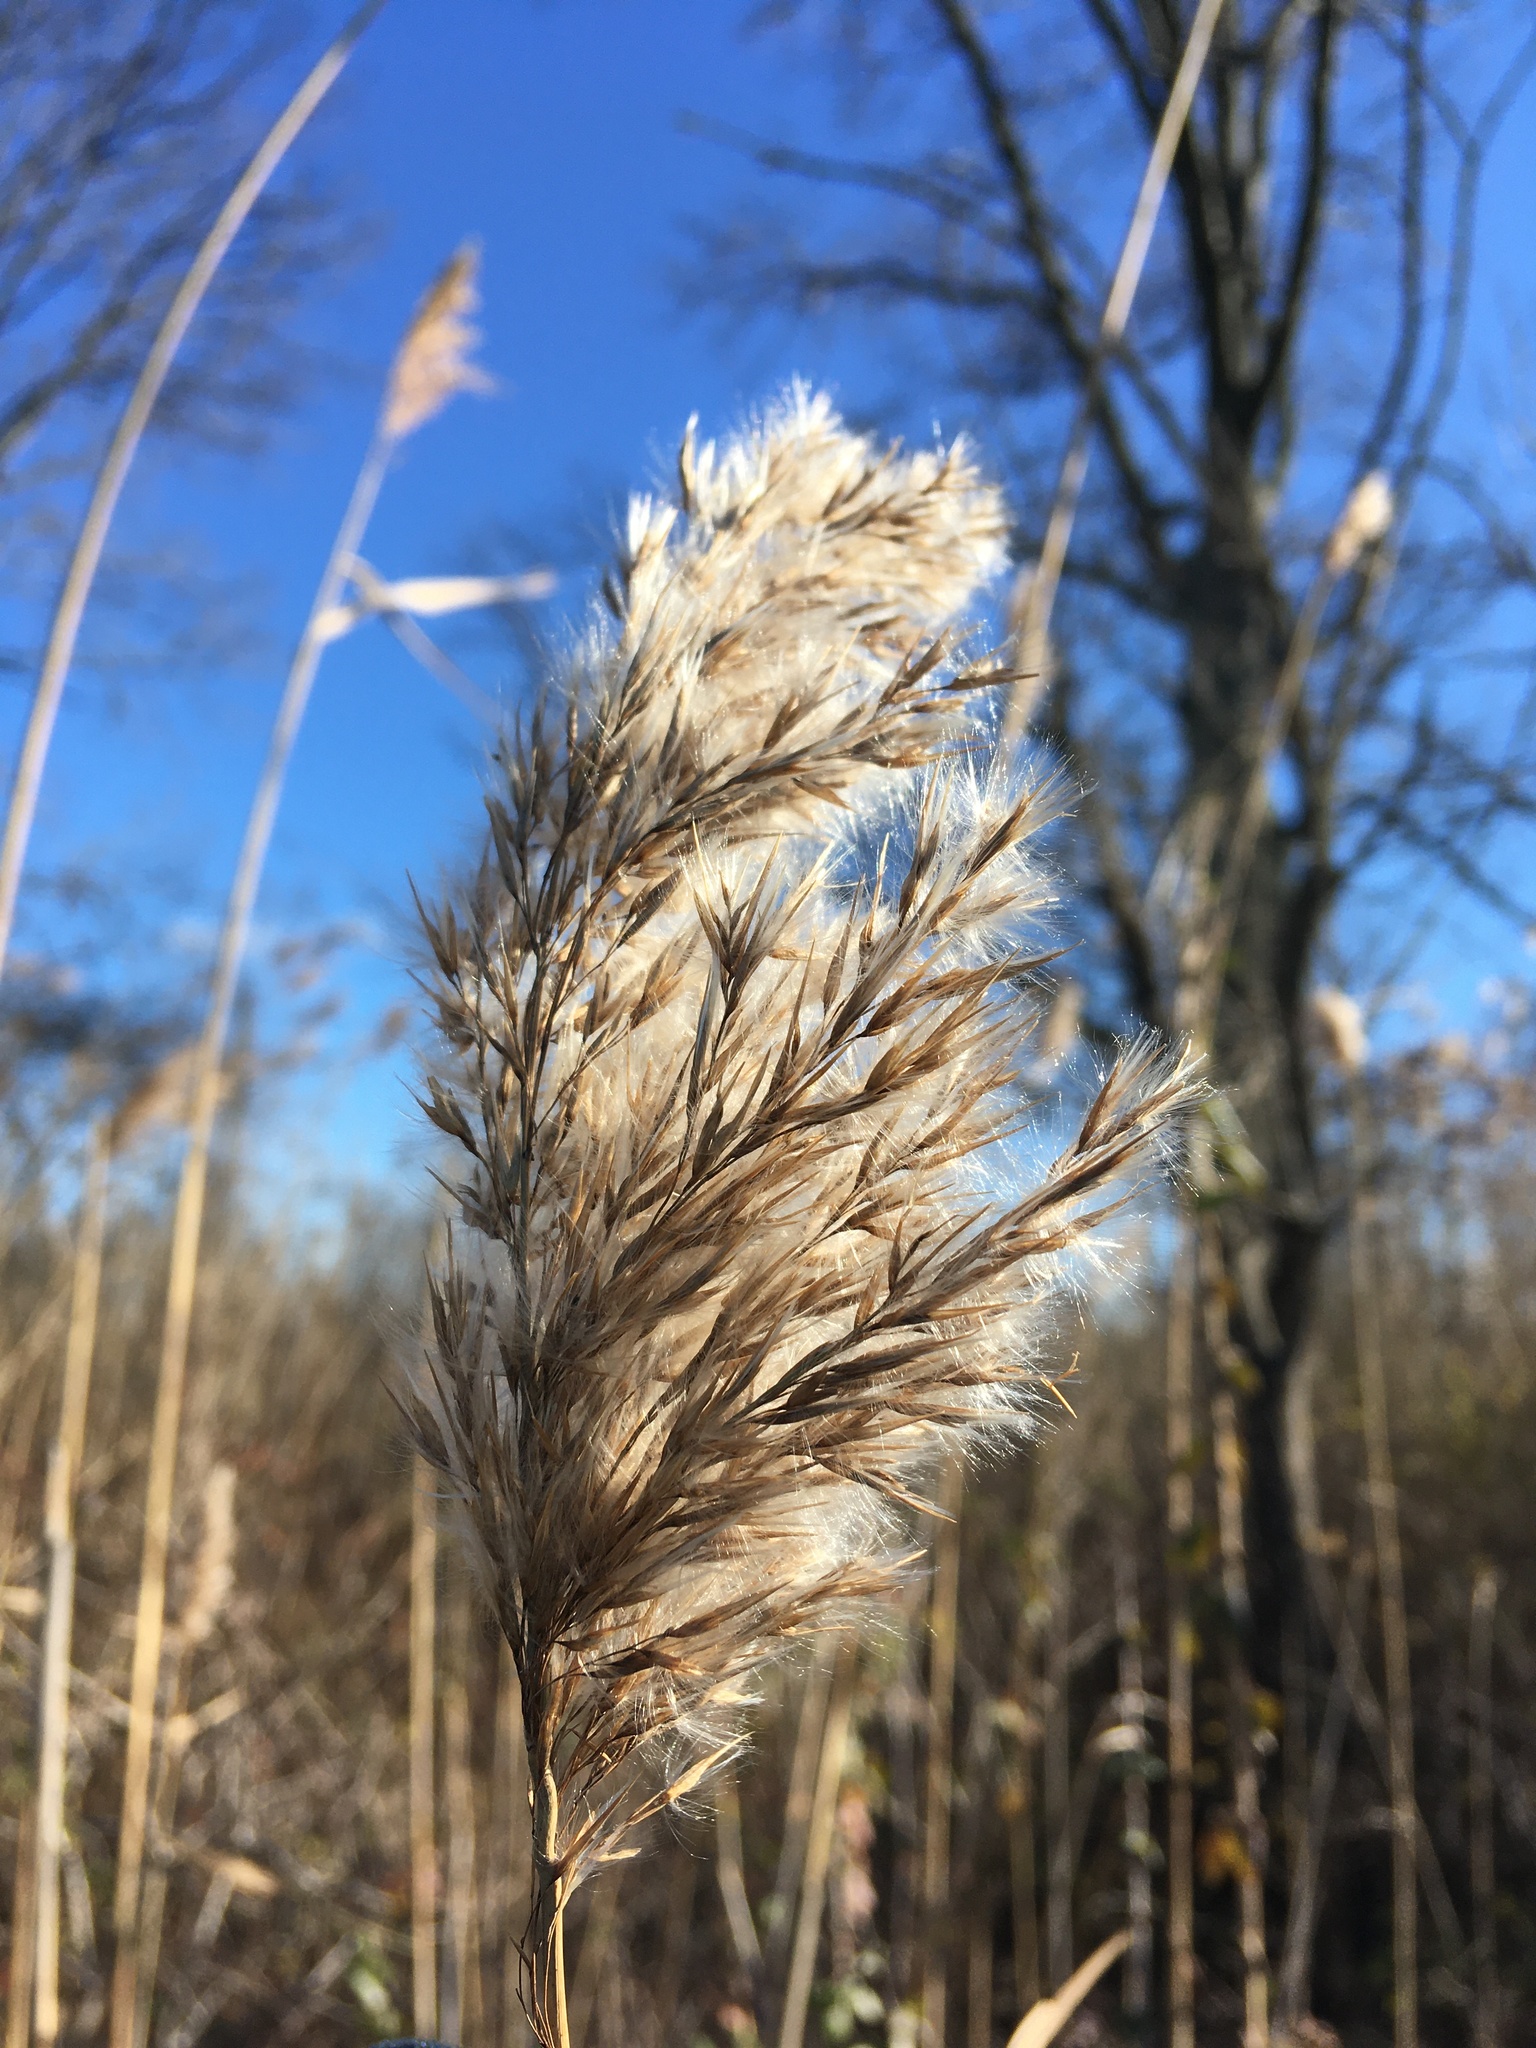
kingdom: Plantae
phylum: Tracheophyta
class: Liliopsida
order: Poales
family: Poaceae
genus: Phragmites
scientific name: Phragmites australis
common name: Common reed
